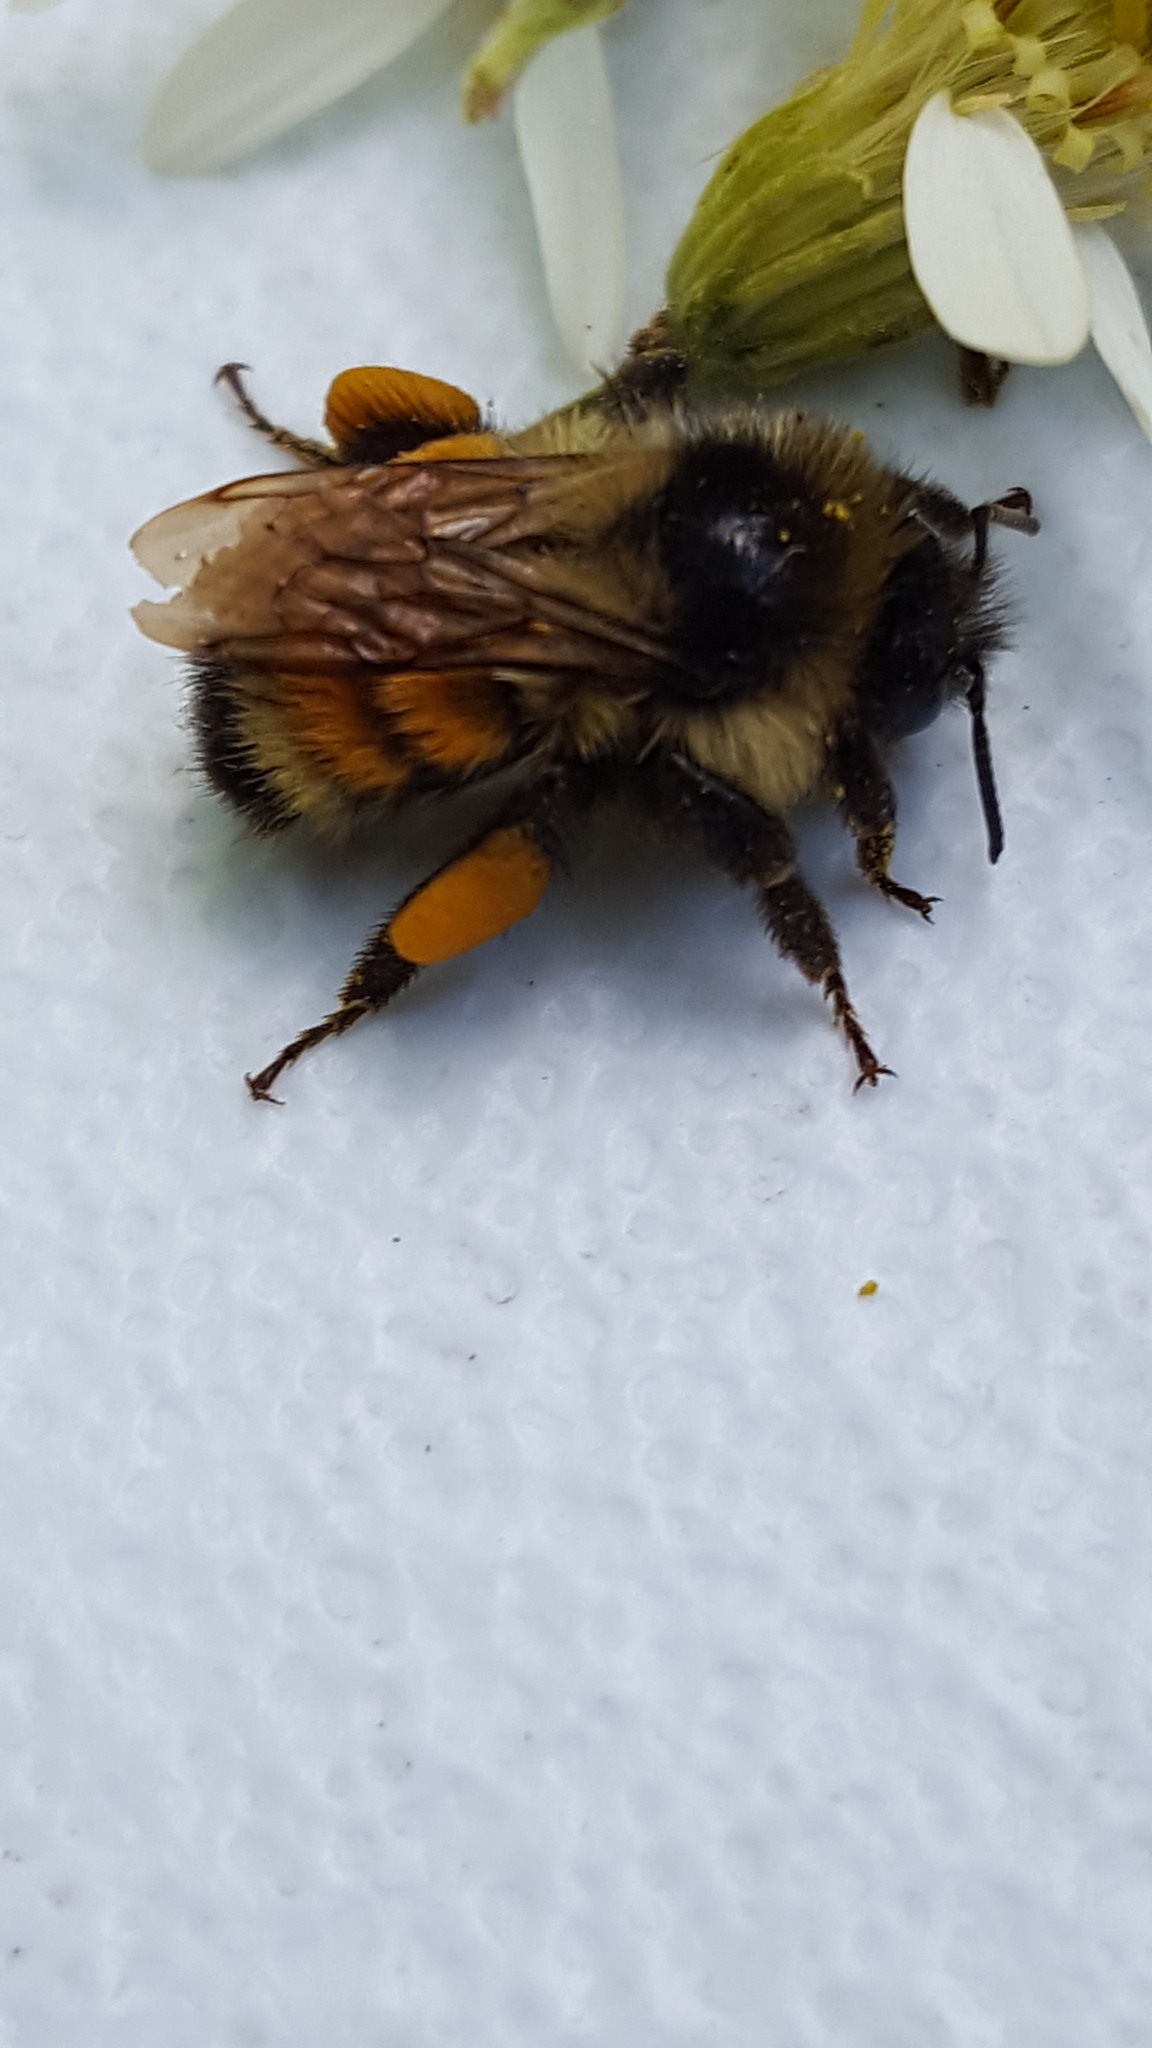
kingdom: Animalia
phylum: Arthropoda
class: Insecta
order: Hymenoptera
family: Apidae
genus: Bombus
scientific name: Bombus ternarius
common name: Tri-colored bumble bee
